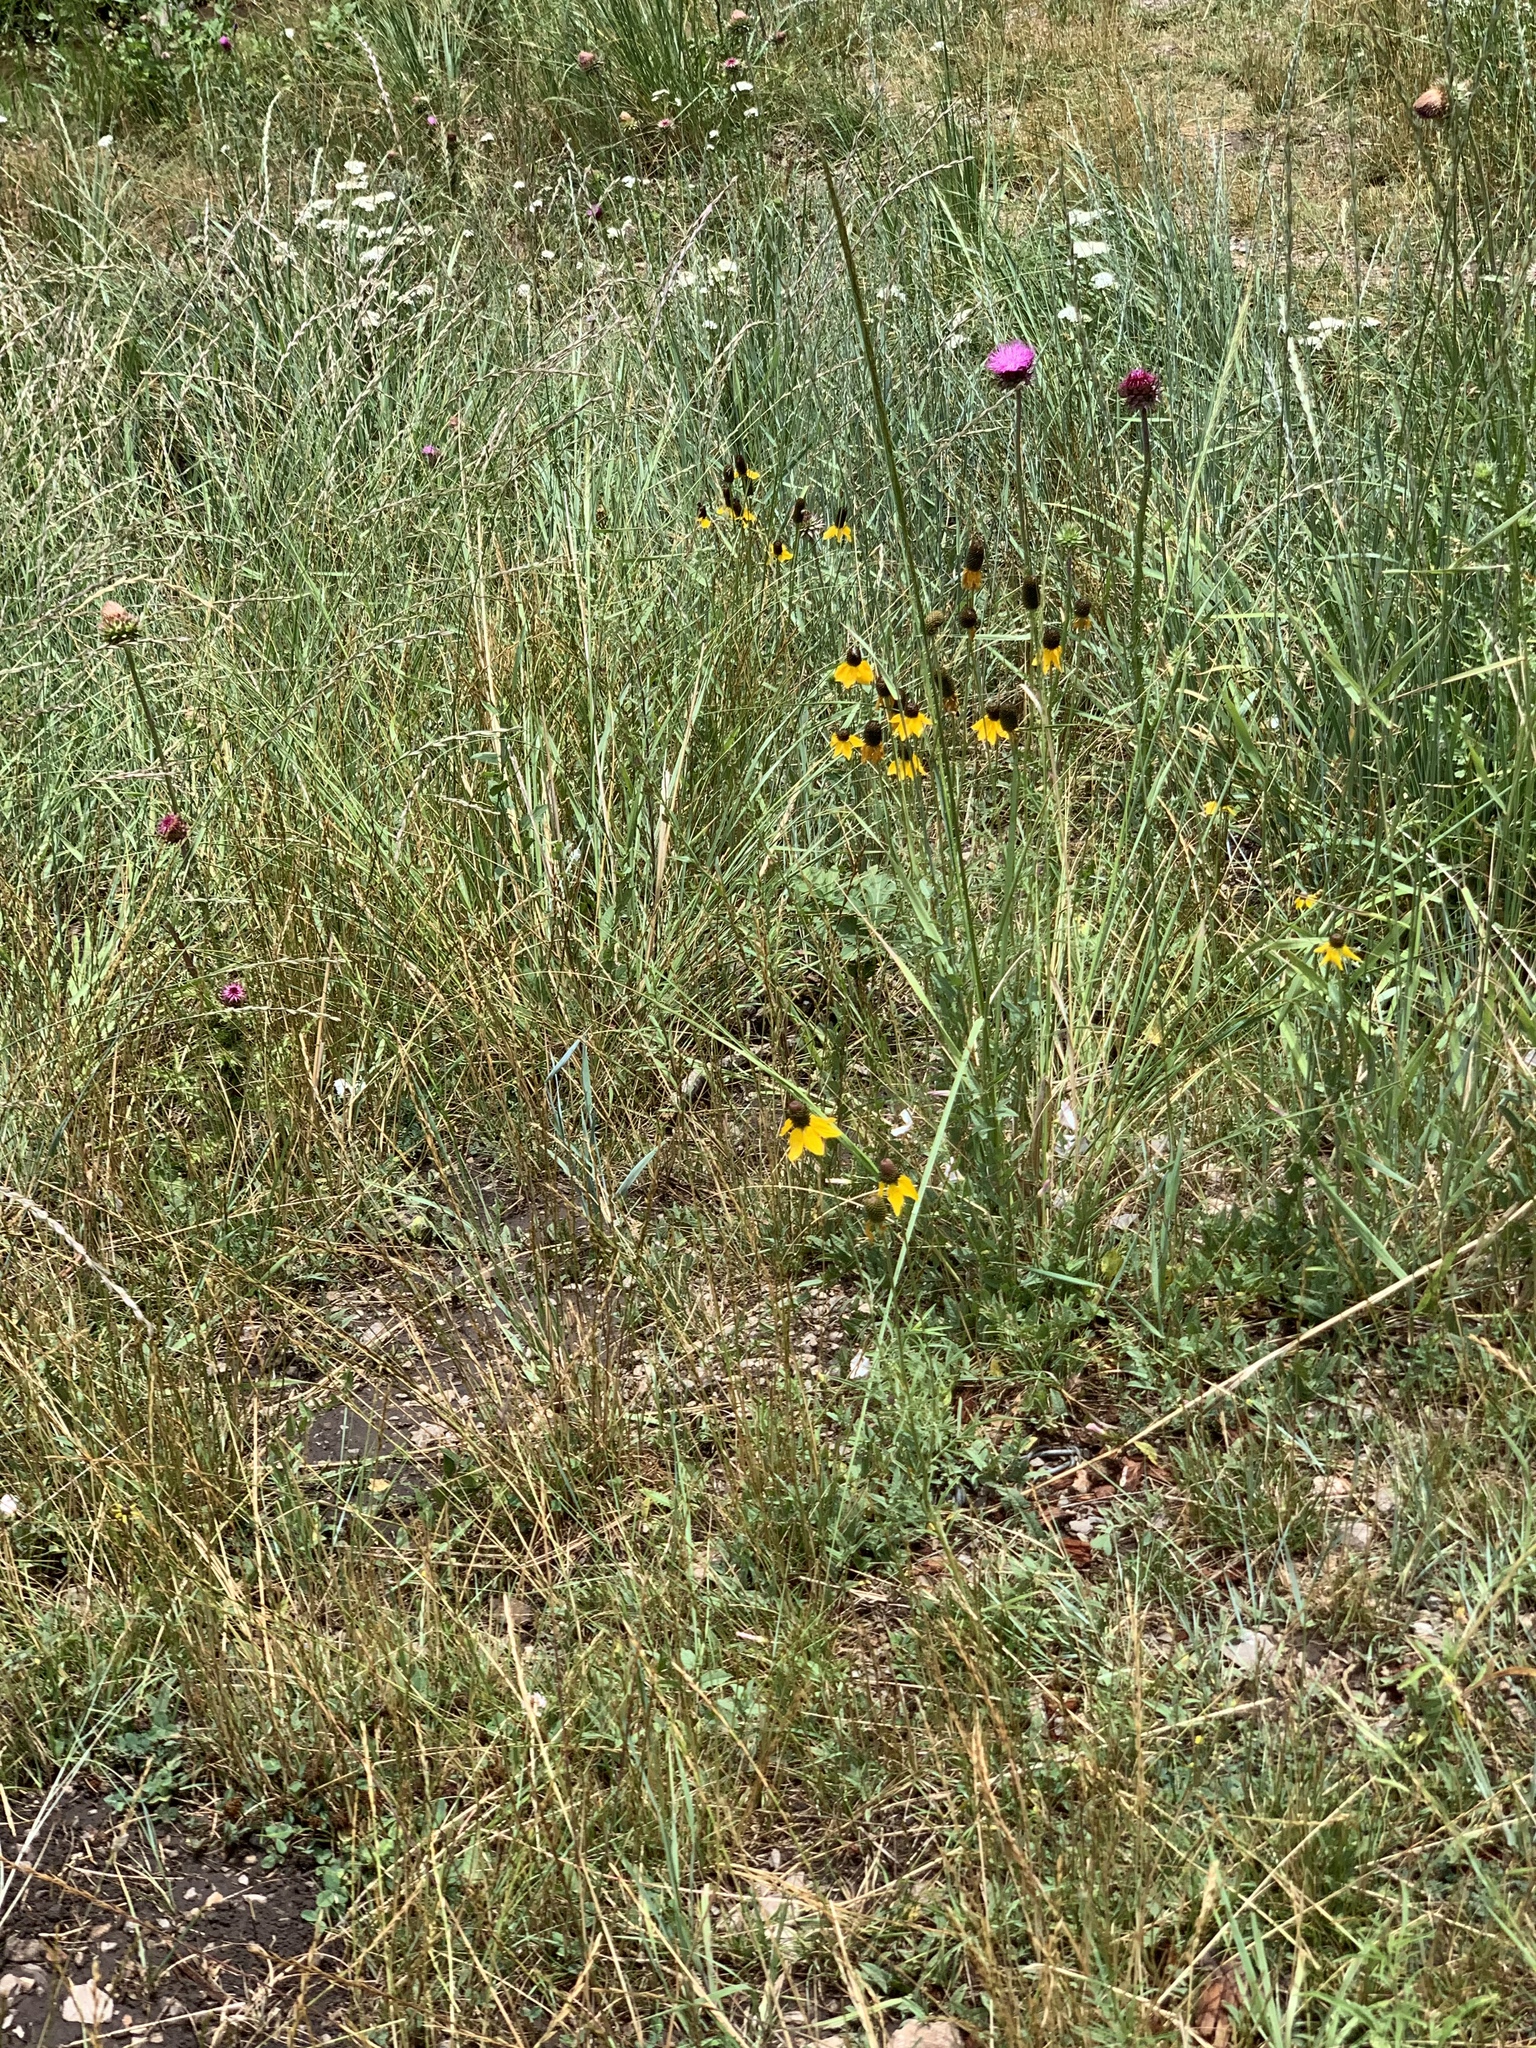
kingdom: Plantae
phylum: Tracheophyta
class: Magnoliopsida
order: Asterales
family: Asteraceae
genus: Ratibida
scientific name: Ratibida columnifera
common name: Prairie coneflower
